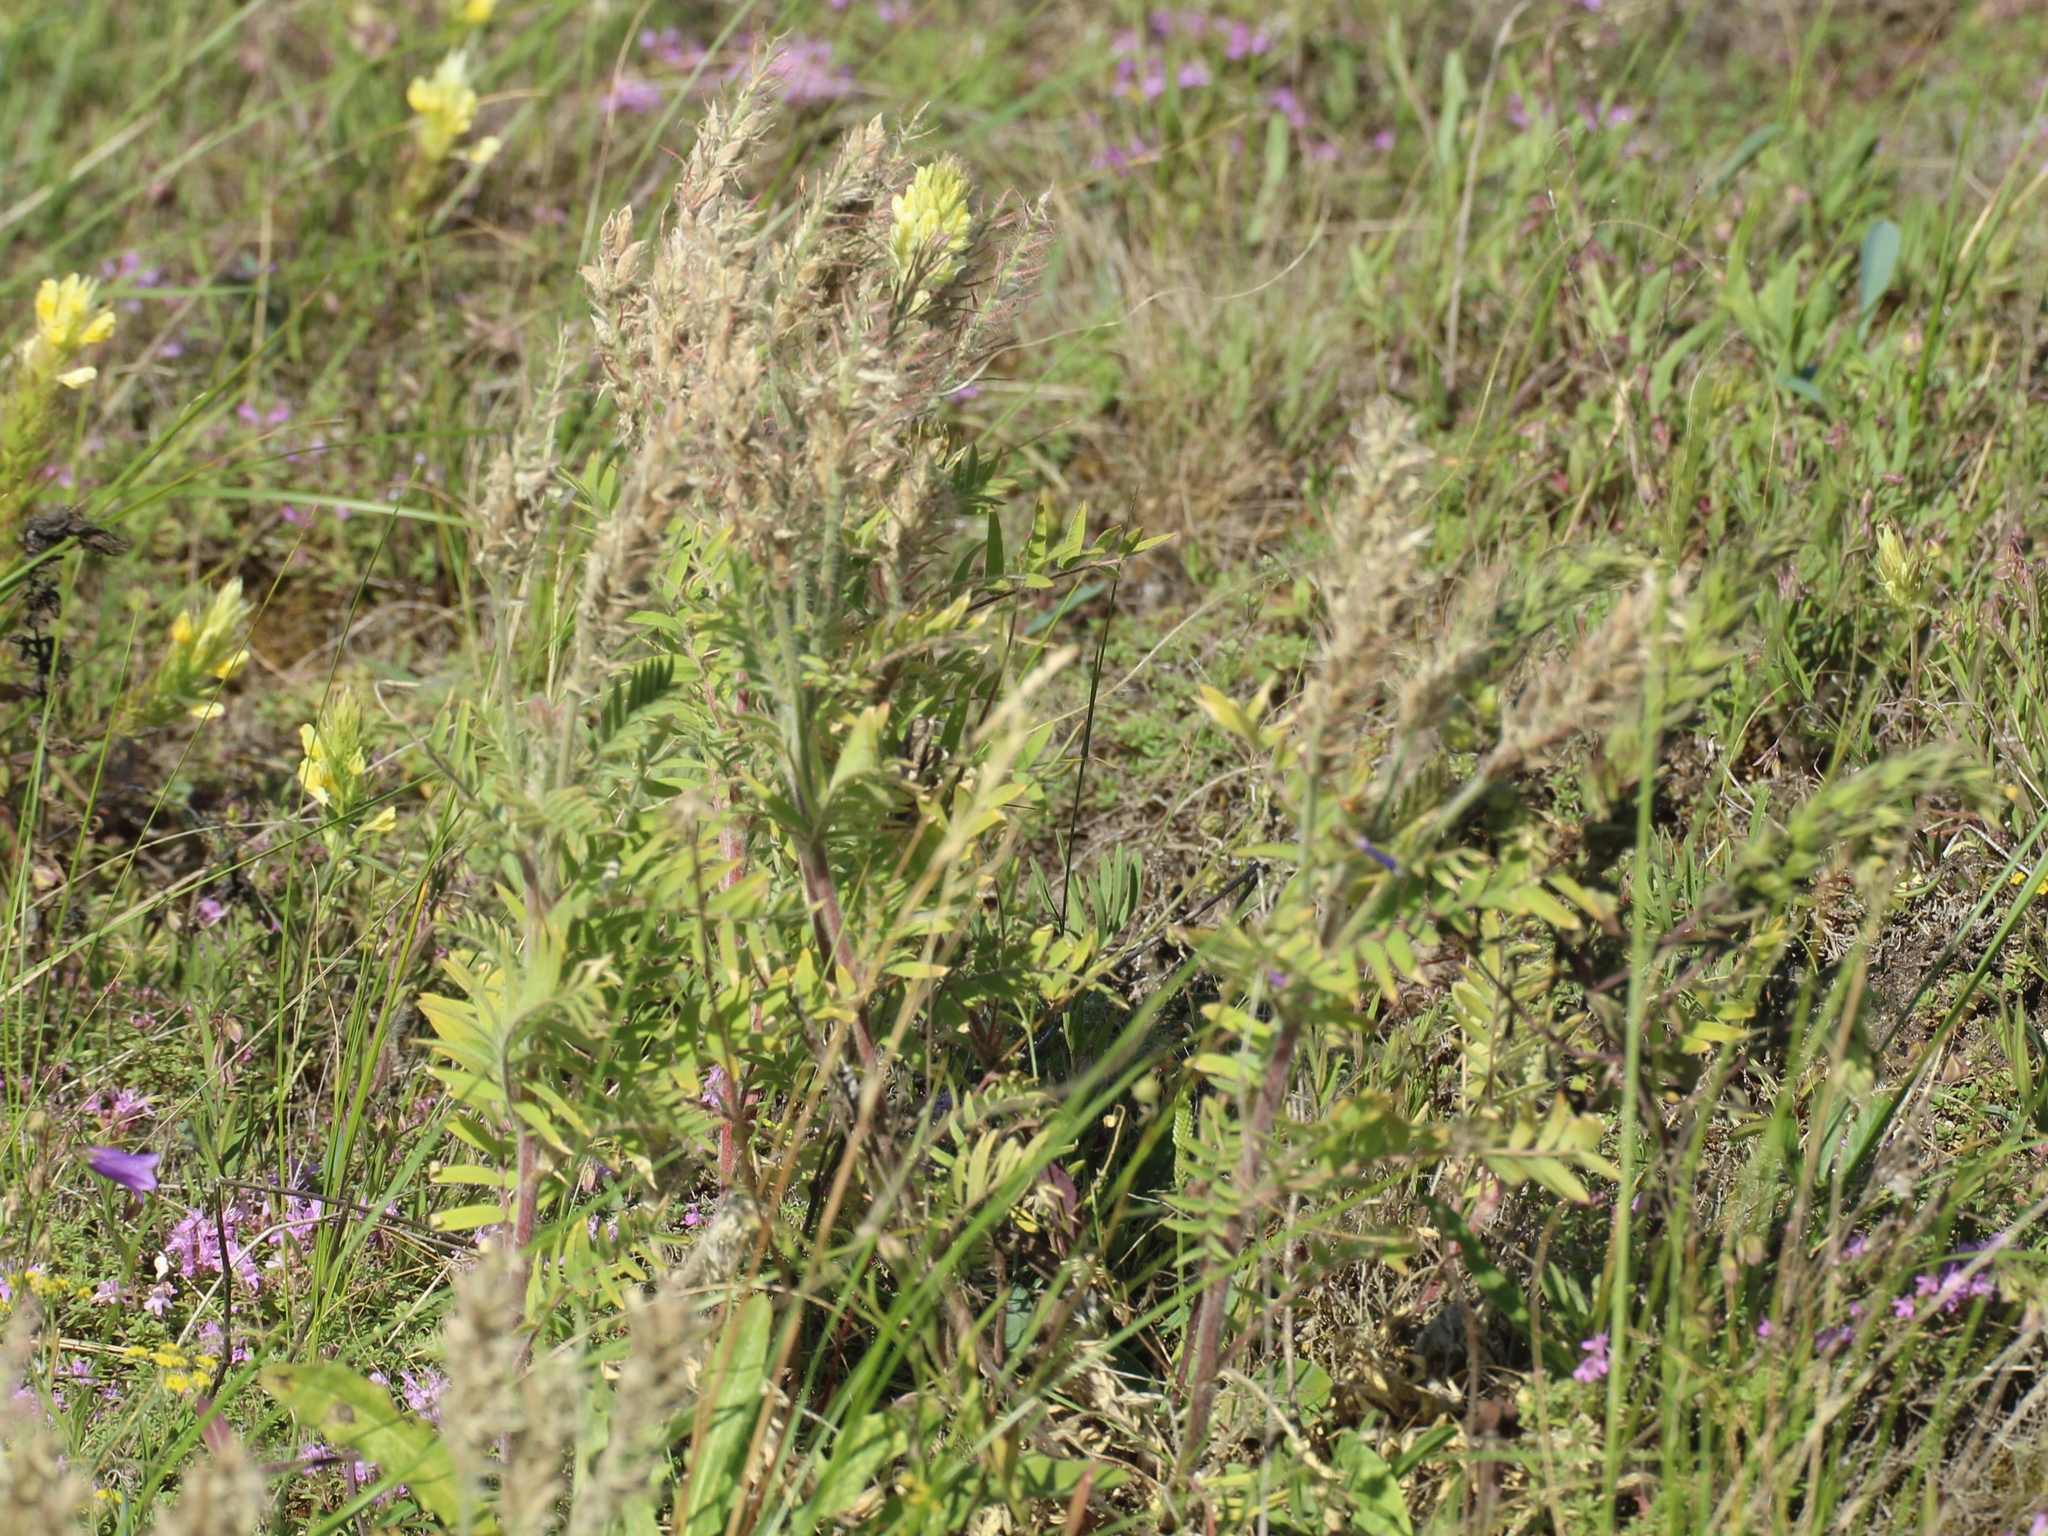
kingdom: Plantae
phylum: Tracheophyta
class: Magnoliopsida
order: Fabales
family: Fabaceae
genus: Oxytropis
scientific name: Oxytropis pilosa
